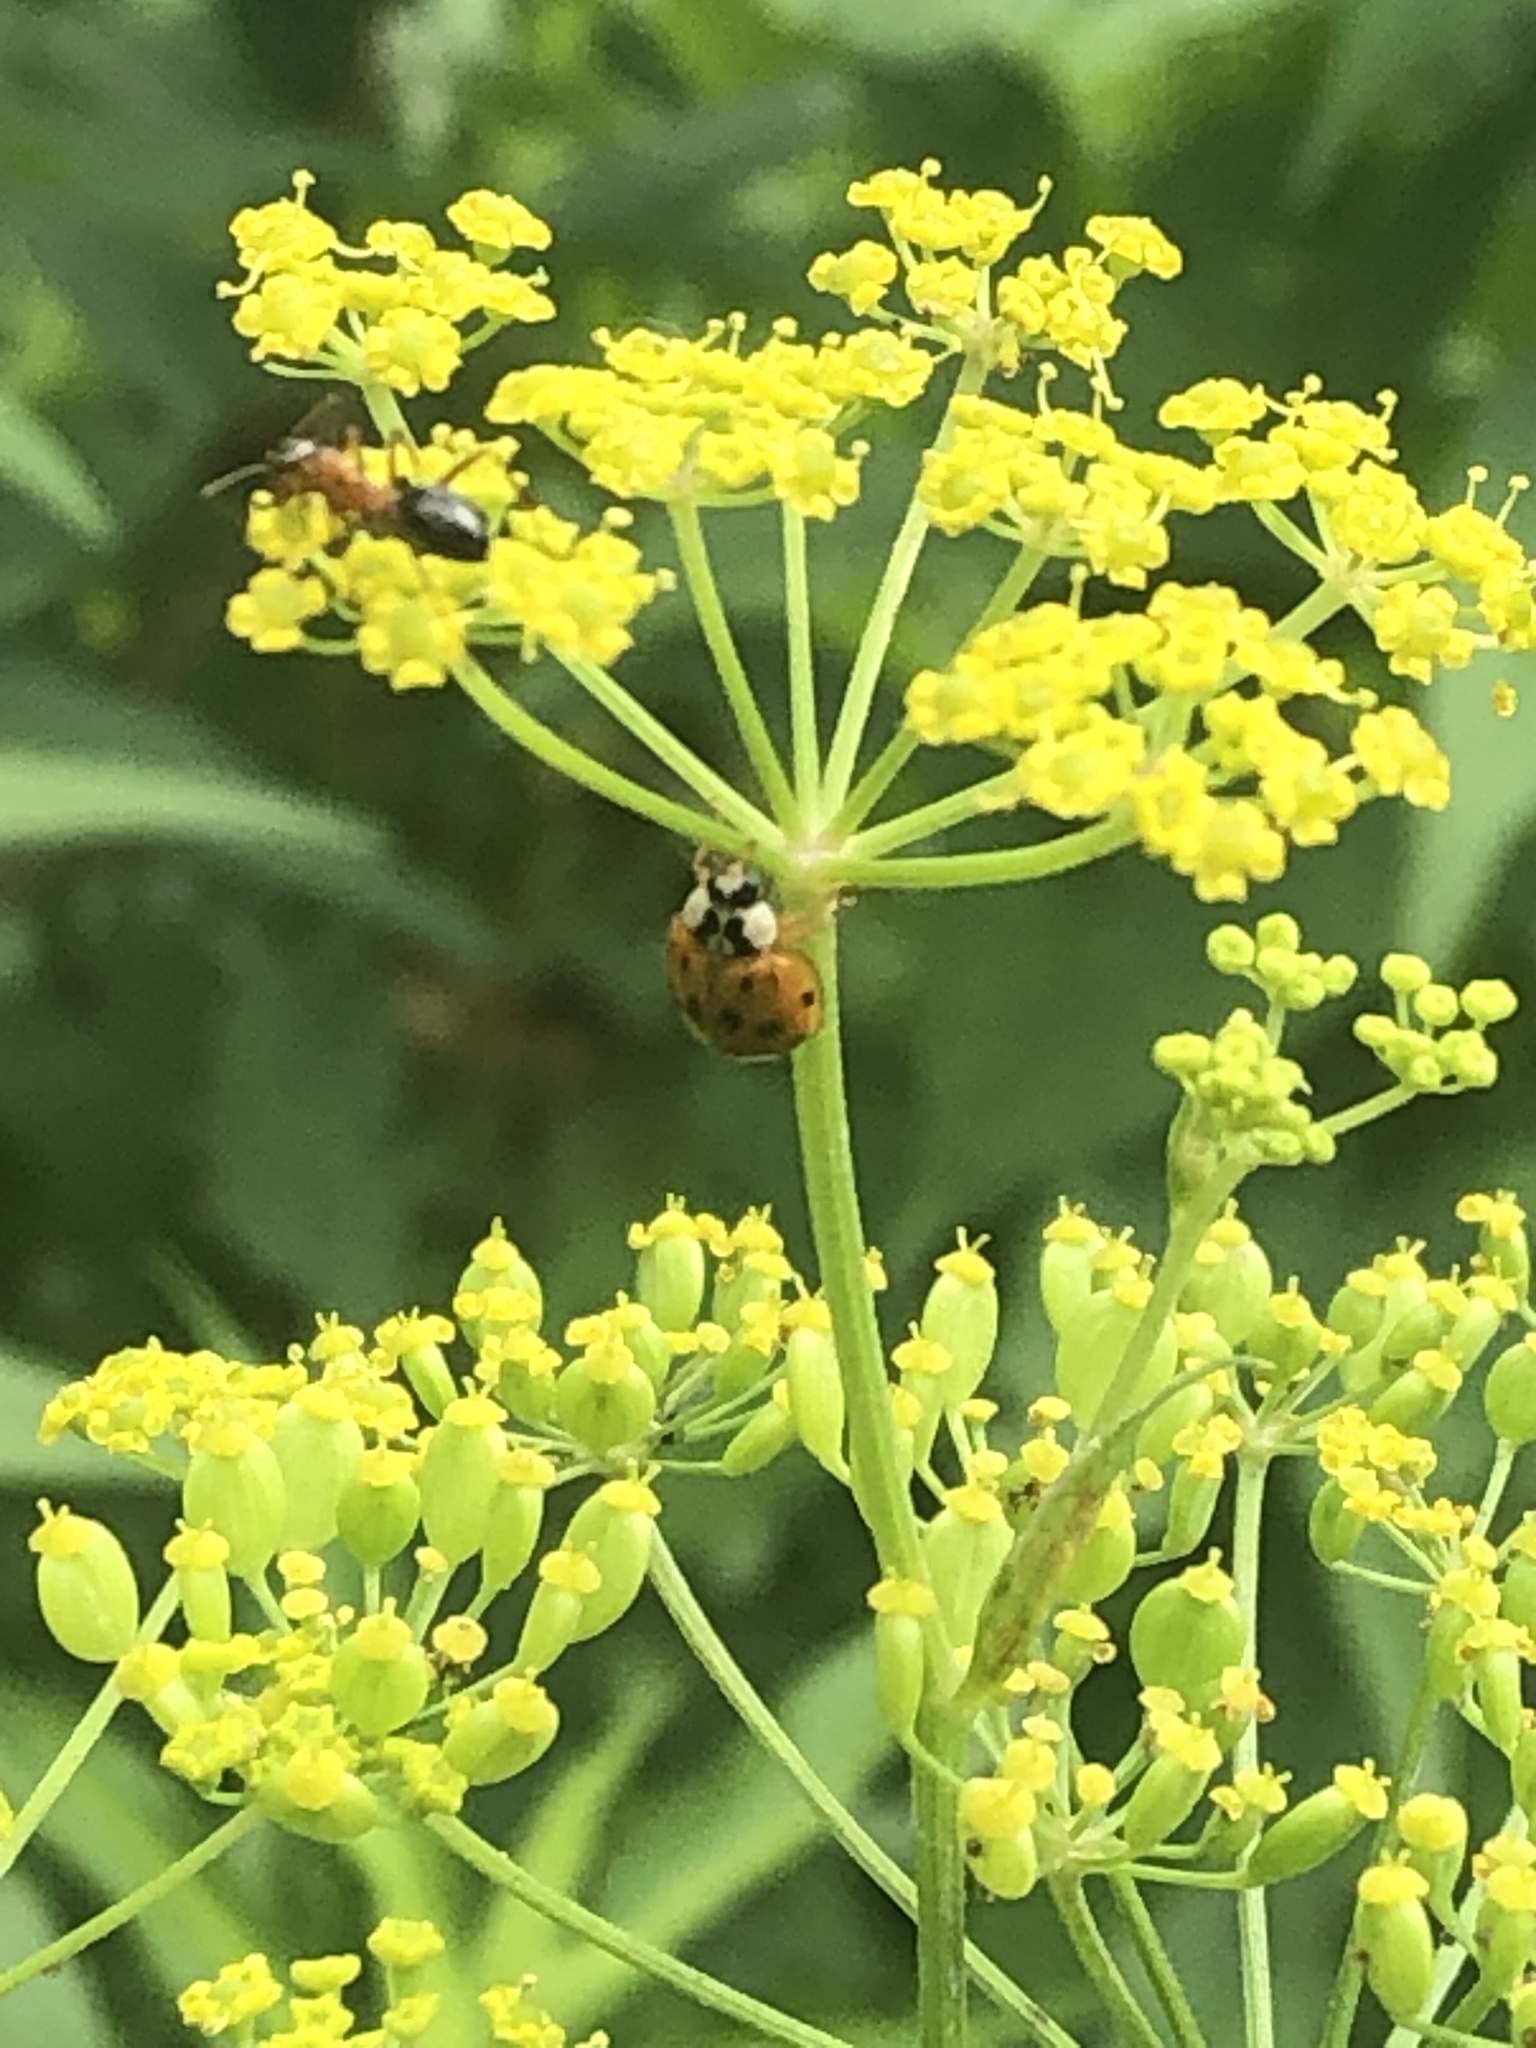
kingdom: Animalia
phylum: Arthropoda
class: Insecta
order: Coleoptera
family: Coccinellidae
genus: Harmonia
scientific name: Harmonia axyridis
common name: Harlequin ladybird
